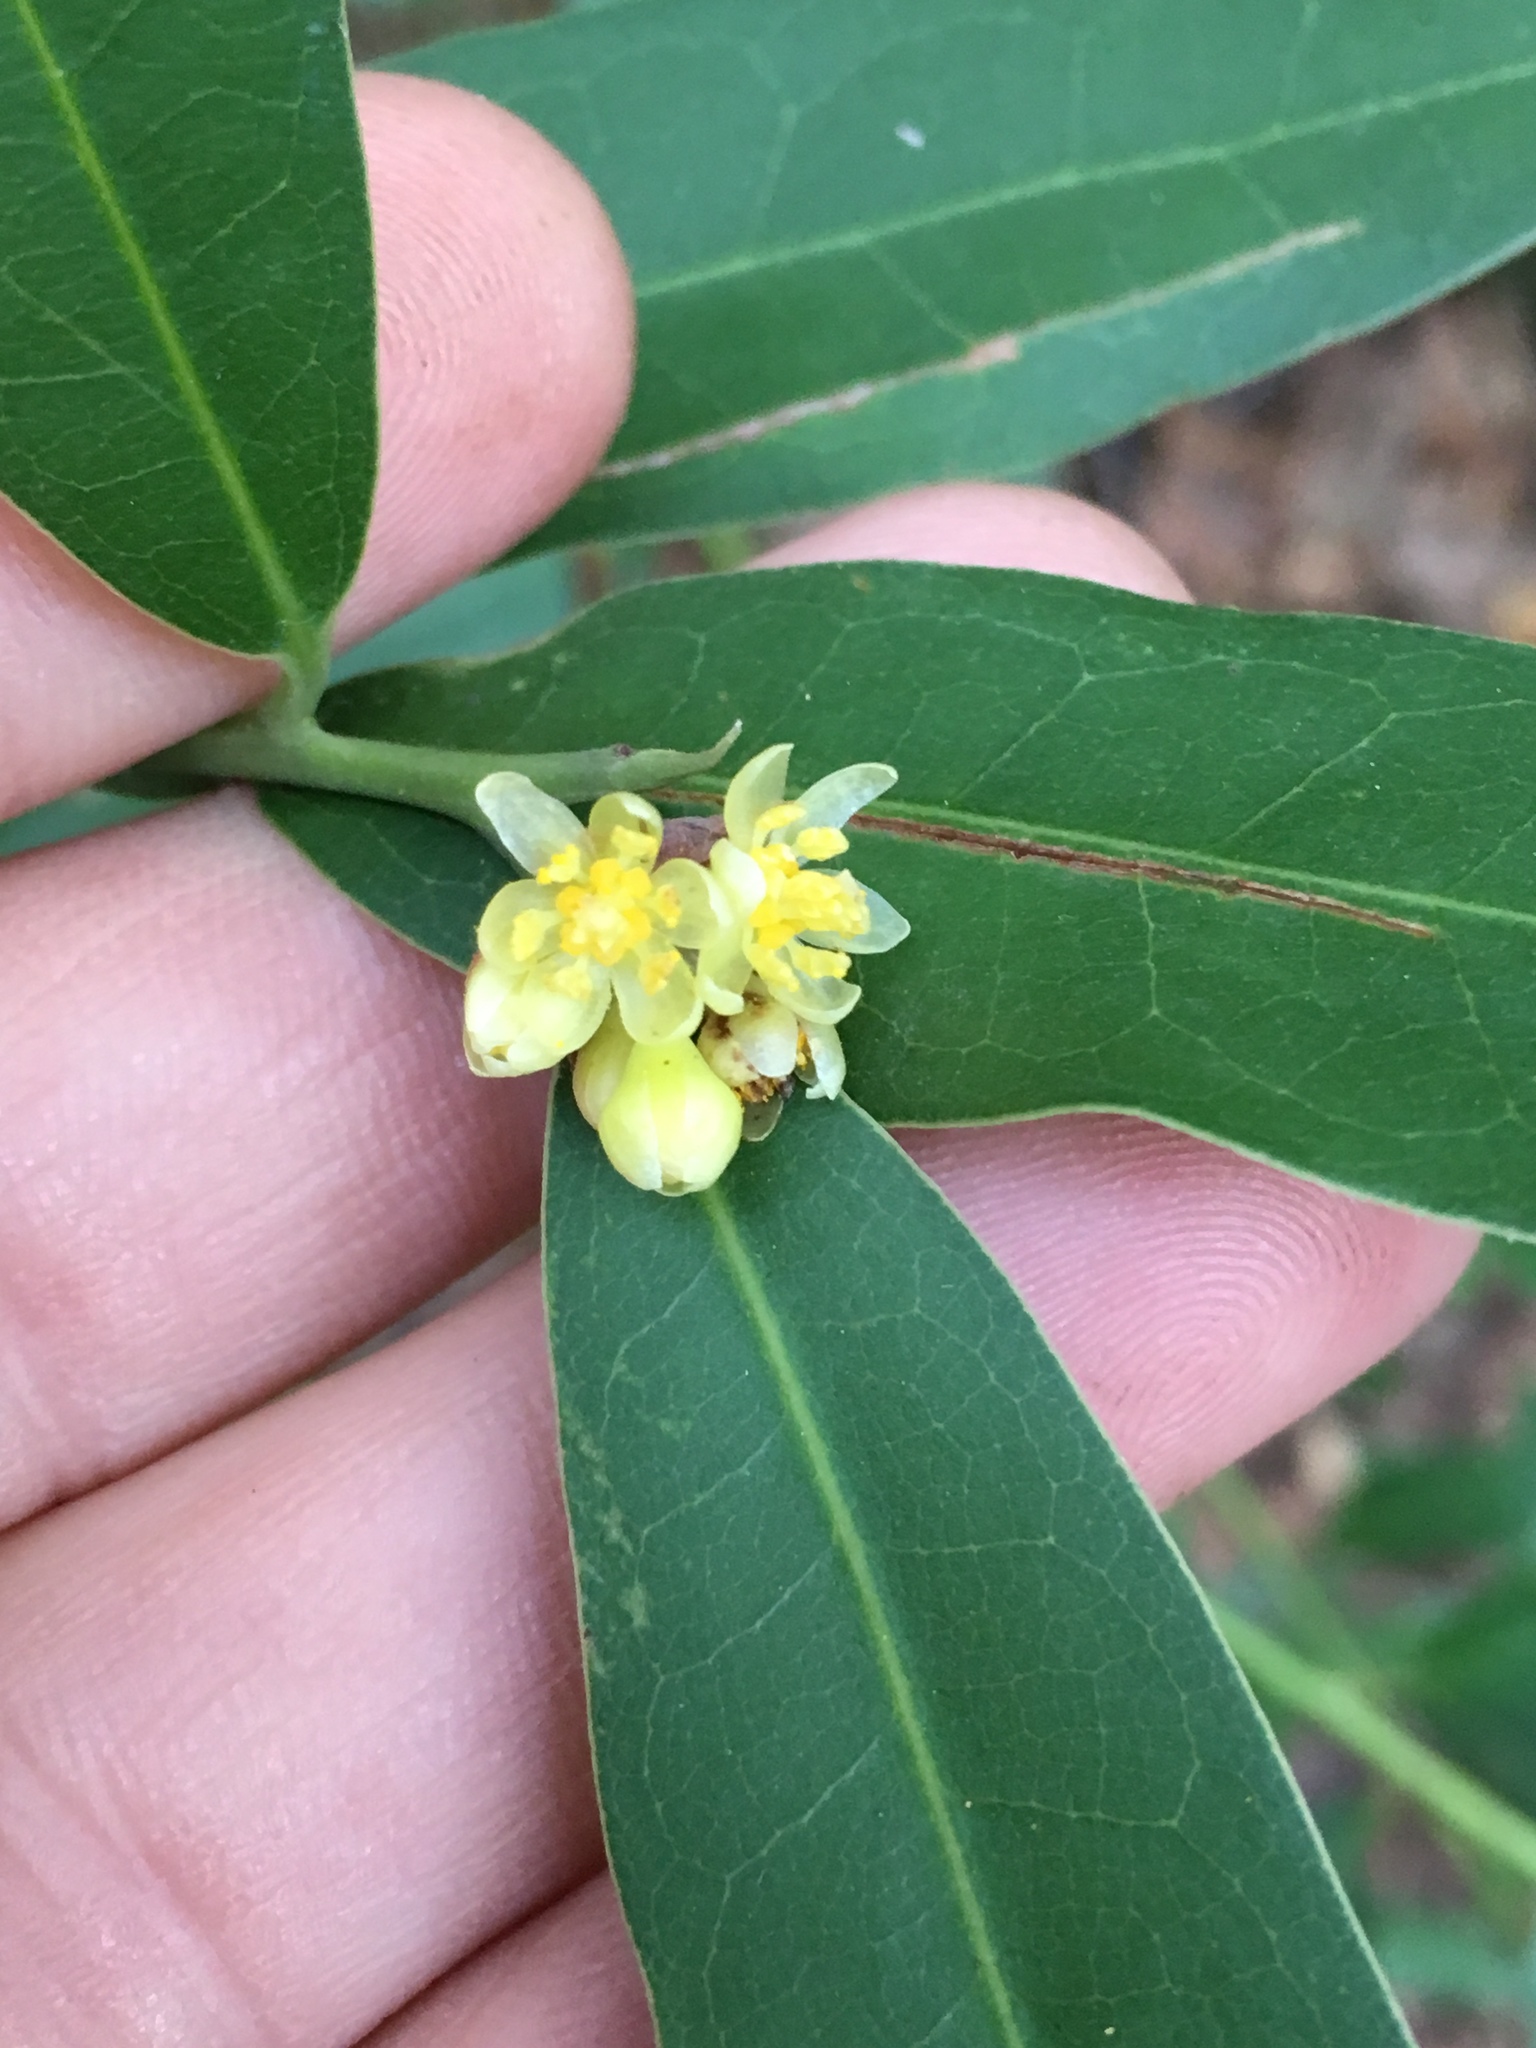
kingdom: Plantae
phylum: Tracheophyta
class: Magnoliopsida
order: Laurales
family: Lauraceae
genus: Umbellularia
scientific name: Umbellularia californica
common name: California bay
